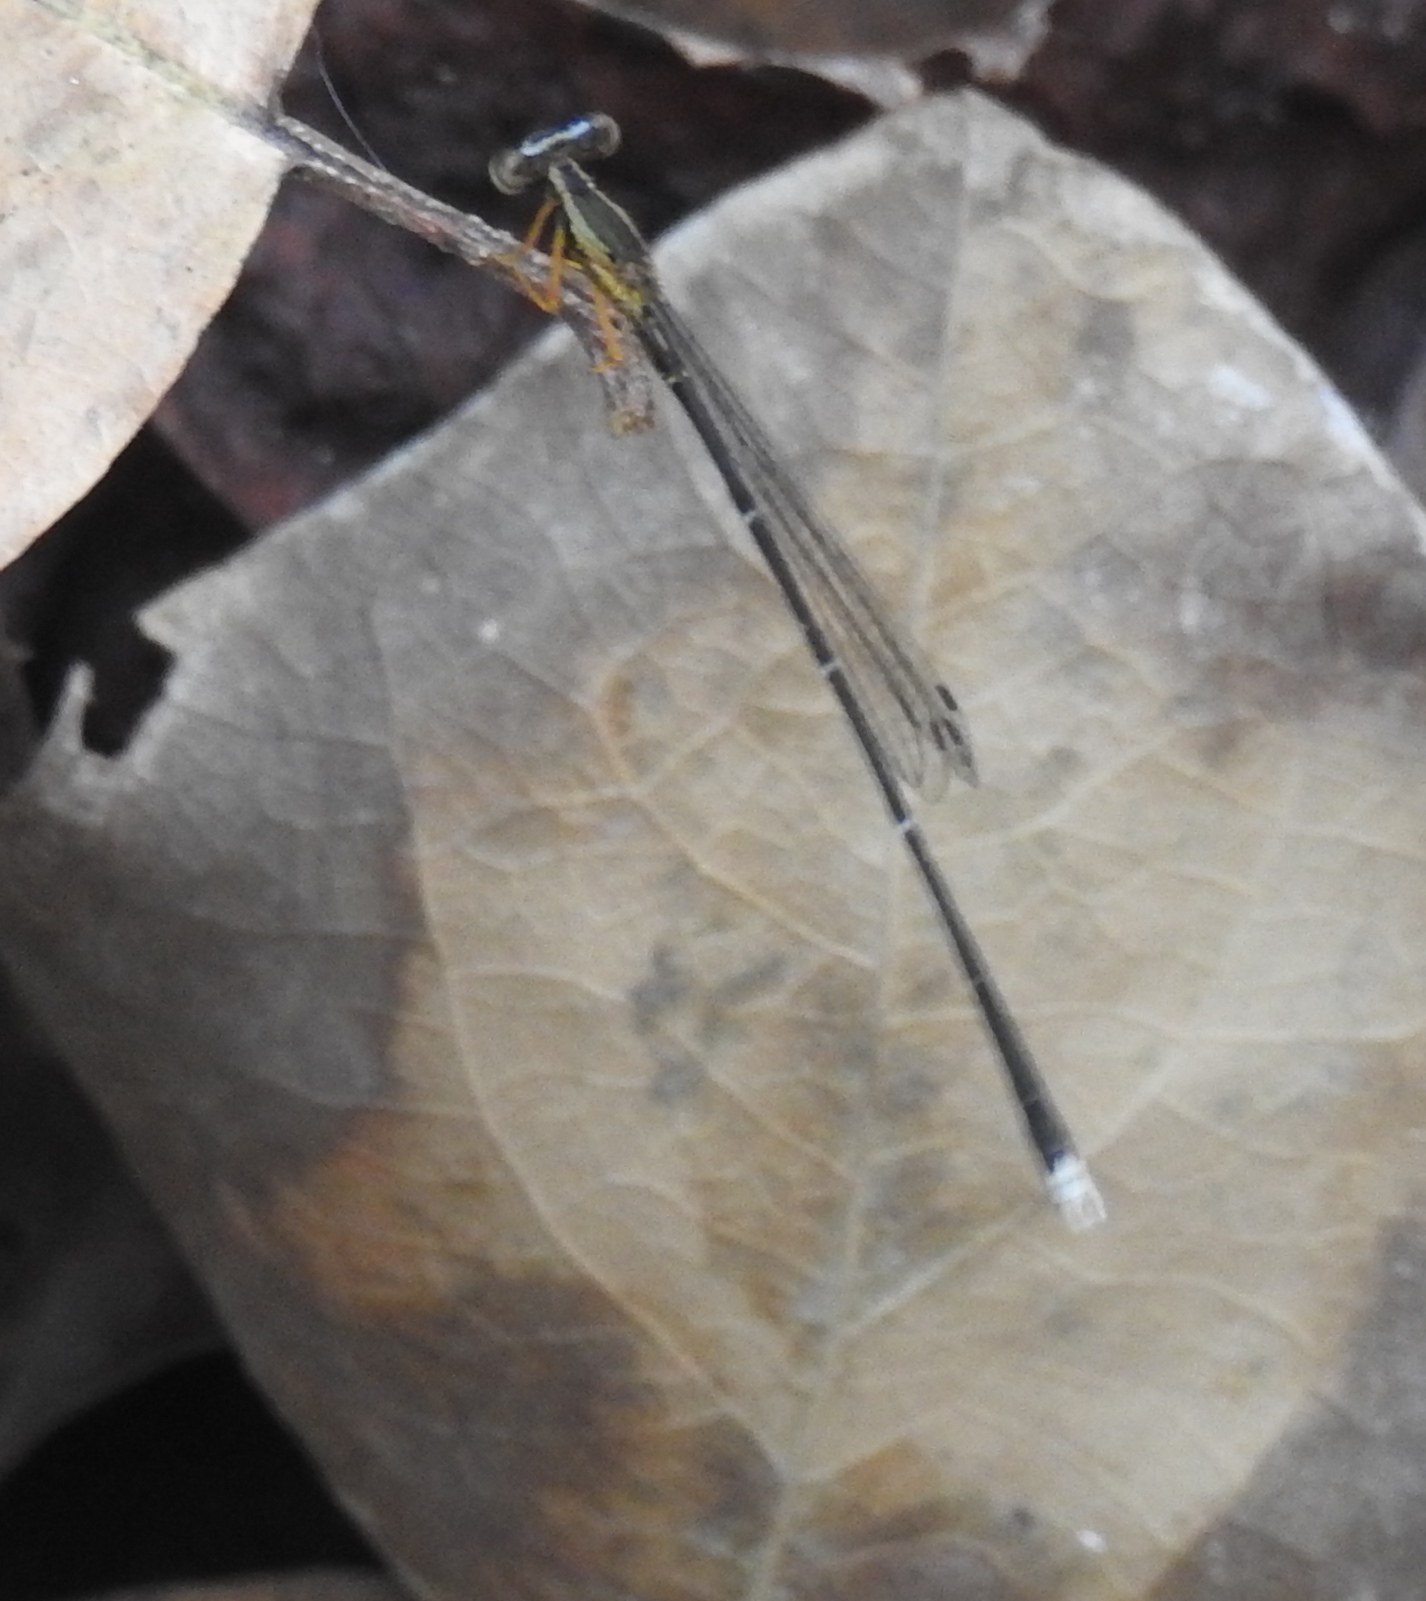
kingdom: Animalia
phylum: Arthropoda
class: Insecta
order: Odonata
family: Platycnemididae
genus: Copera
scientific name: Copera vittata
